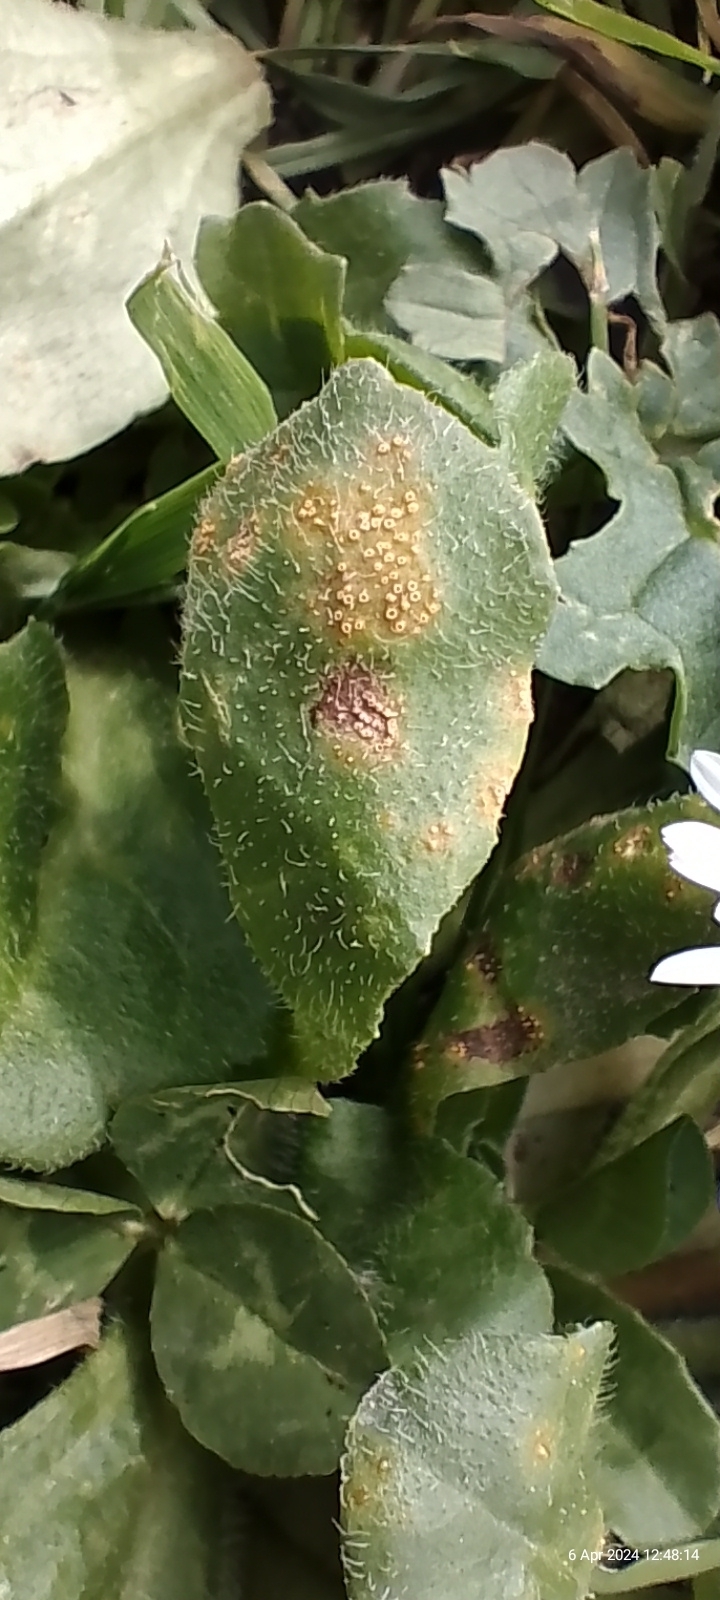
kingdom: Fungi
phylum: Basidiomycota
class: Pucciniomycetes
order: Pucciniales
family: Pucciniaceae
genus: Puccinia
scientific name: Puccinia lagenophorae
